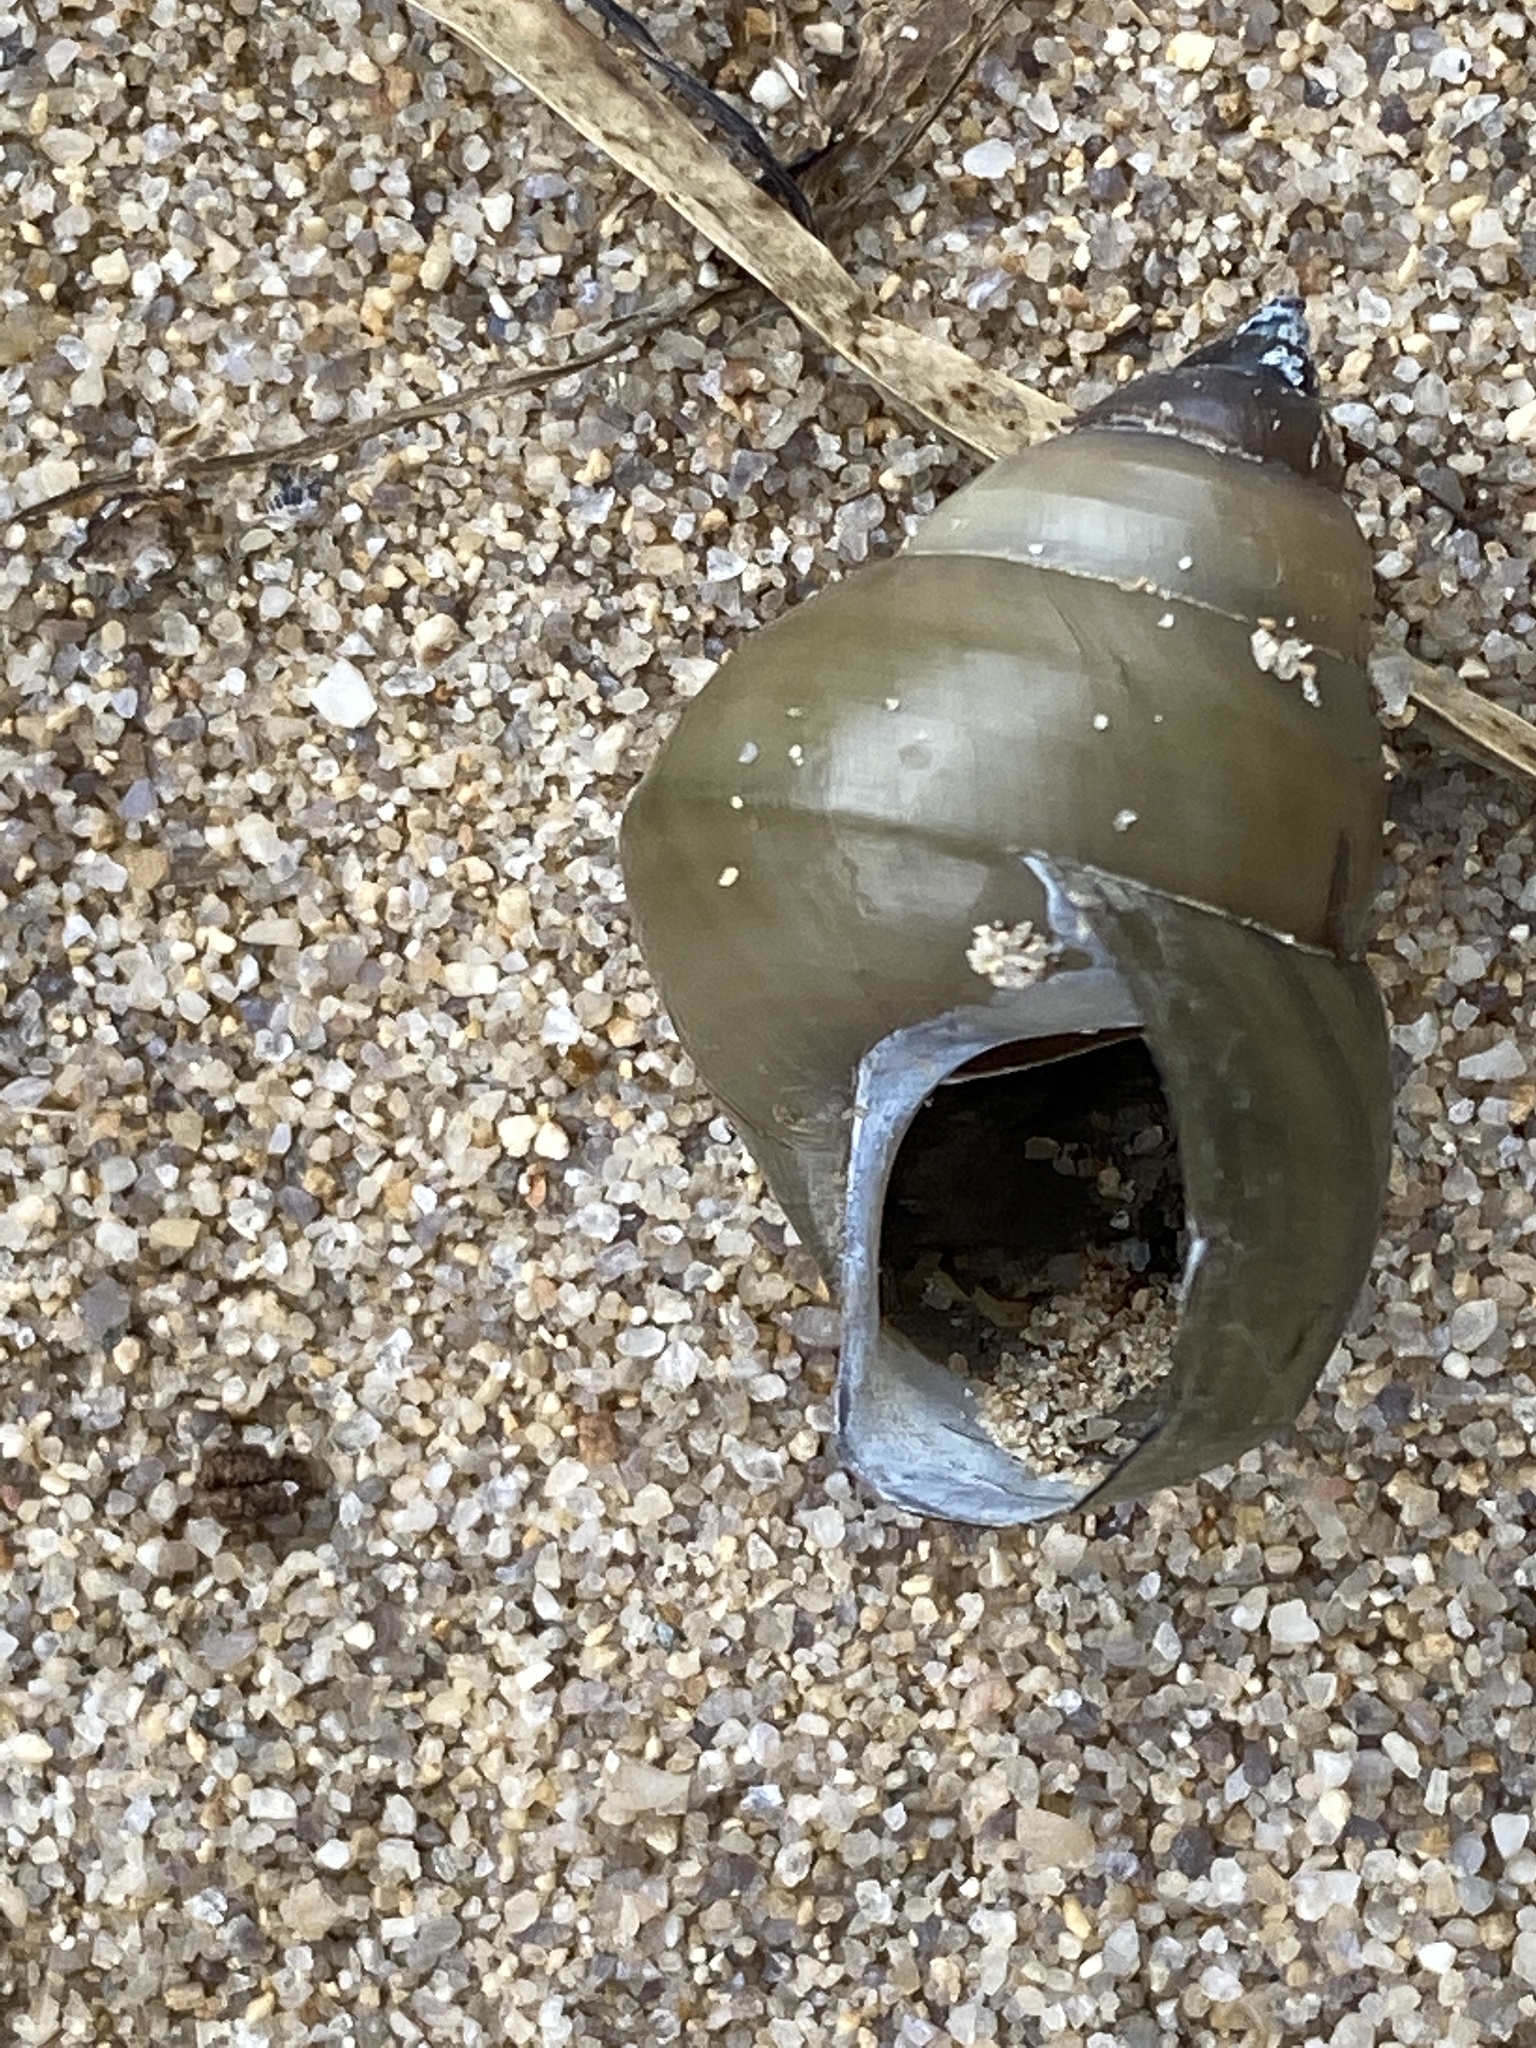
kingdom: Animalia
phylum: Mollusca
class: Gastropoda
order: Architaenioglossa
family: Viviparidae
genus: Cipangopaludina
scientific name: Cipangopaludina chinensis
